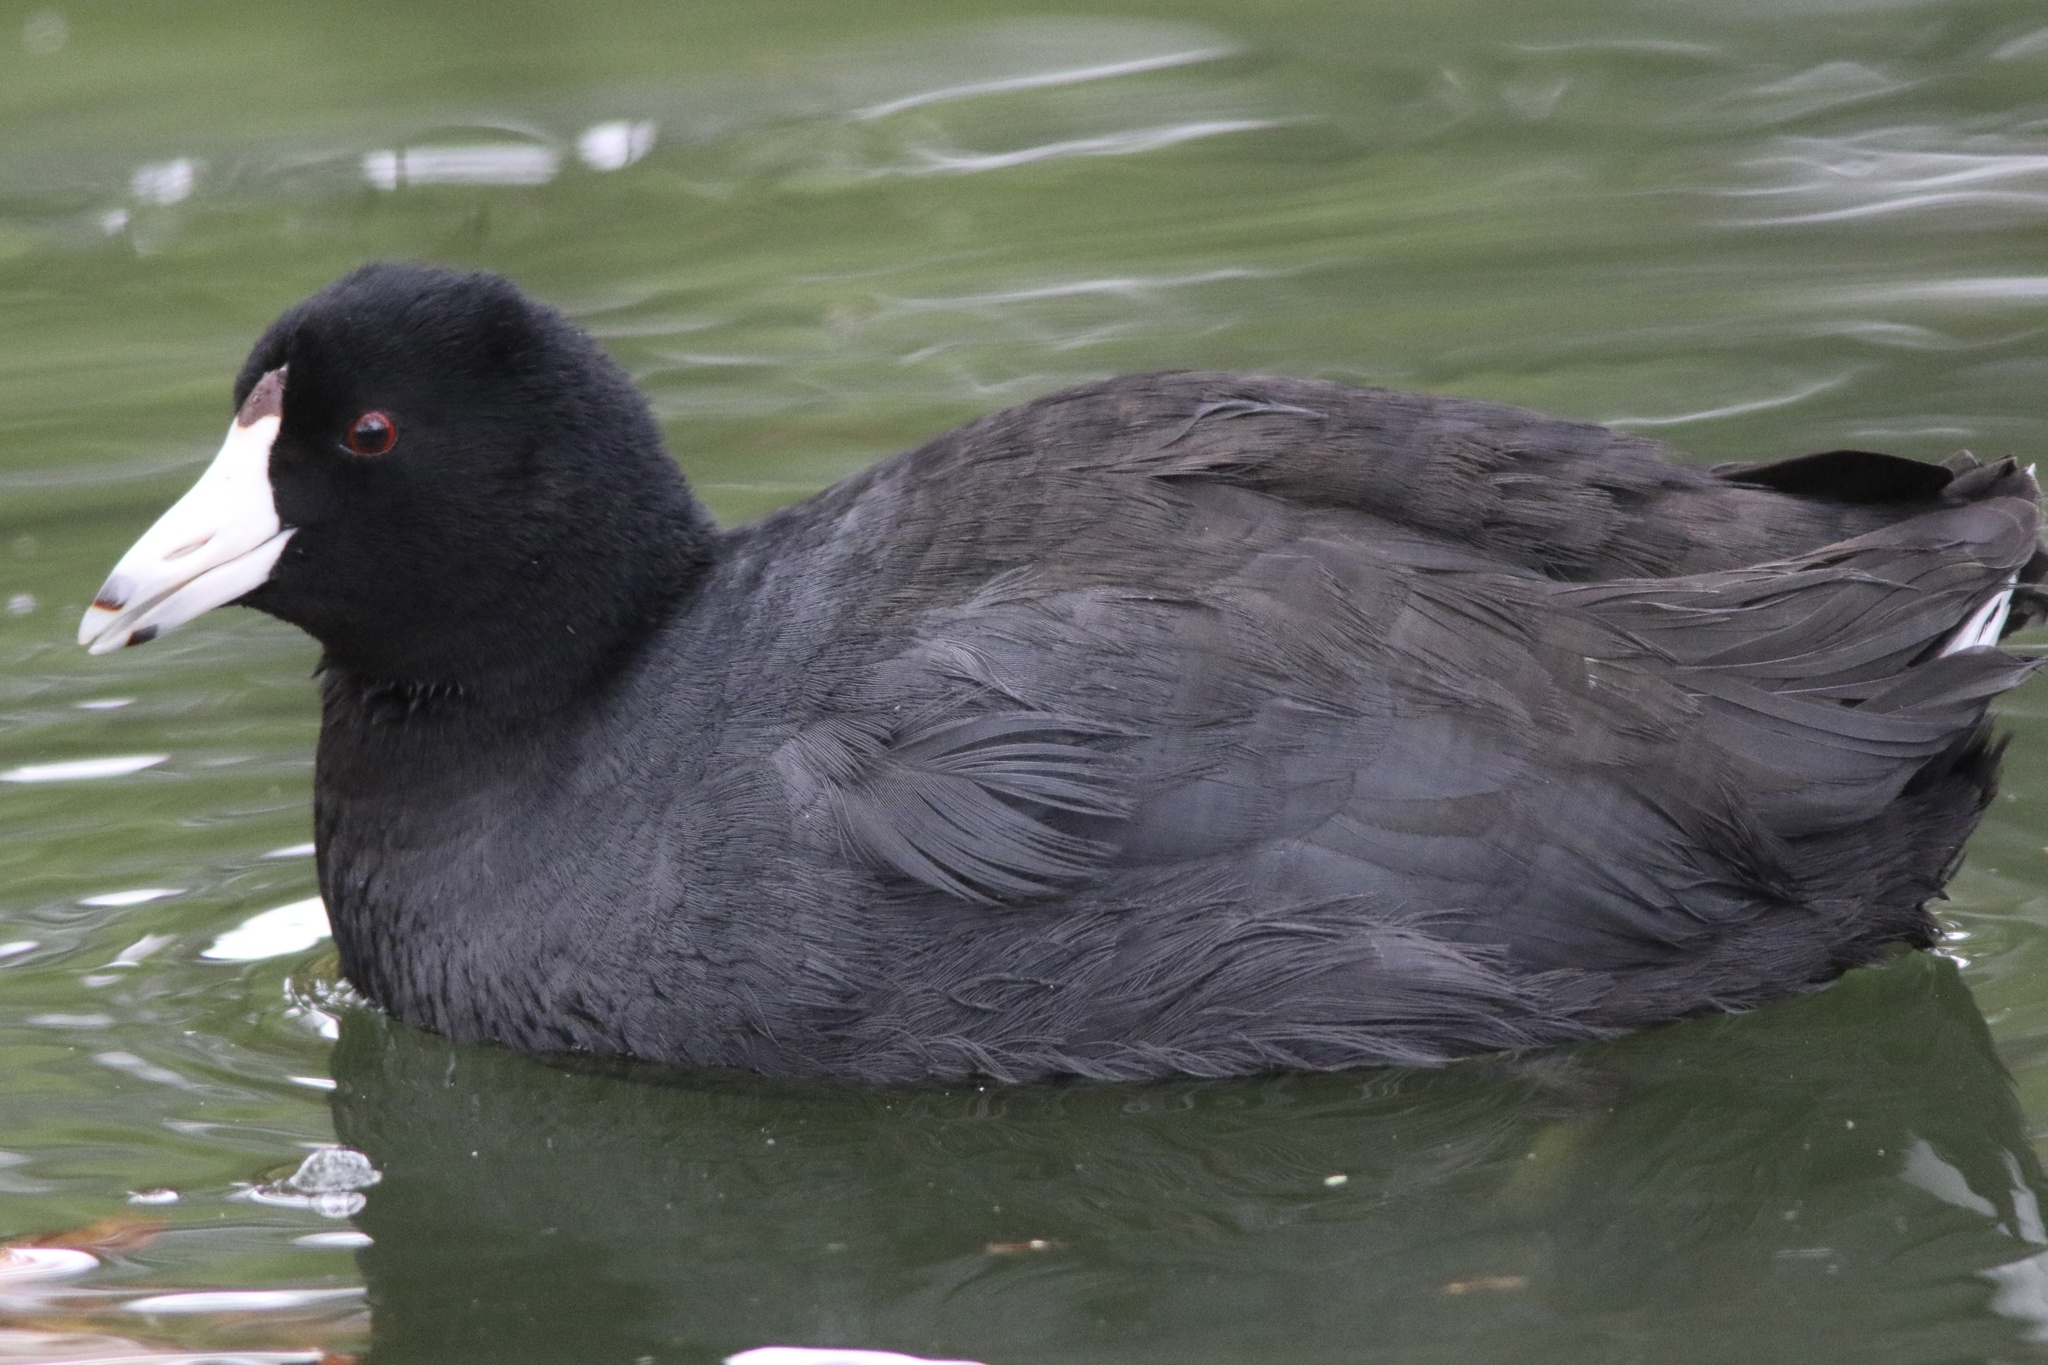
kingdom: Animalia
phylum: Chordata
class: Aves
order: Gruiformes
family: Rallidae
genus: Fulica
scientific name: Fulica americana
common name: American coot
